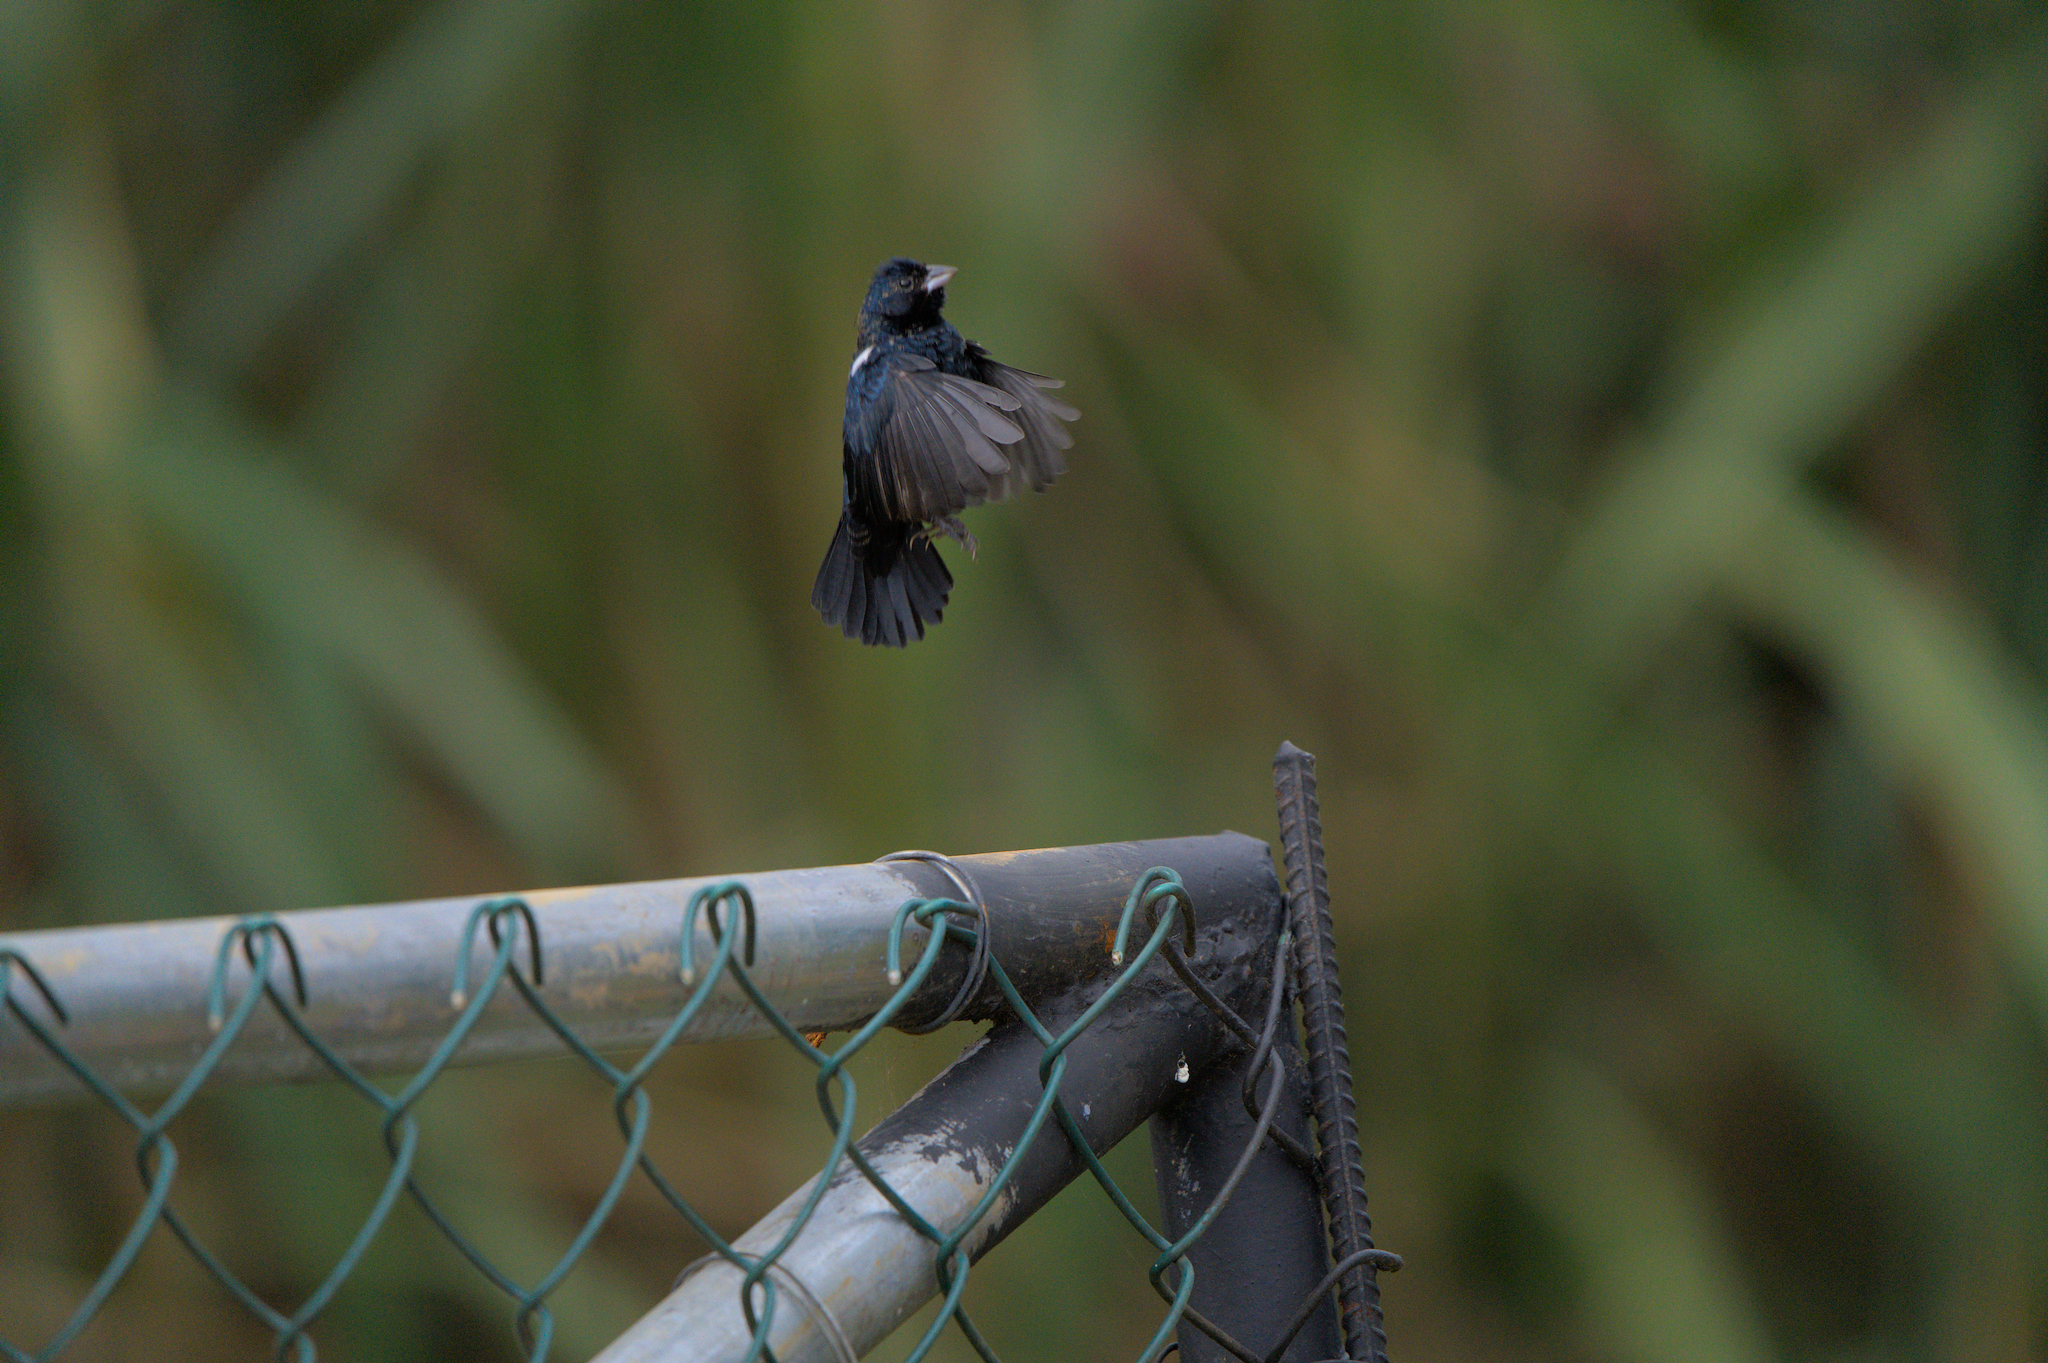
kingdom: Animalia
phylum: Chordata
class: Aves
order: Passeriformes
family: Thraupidae
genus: Volatinia
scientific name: Volatinia jacarina
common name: Blue-black grassquit
